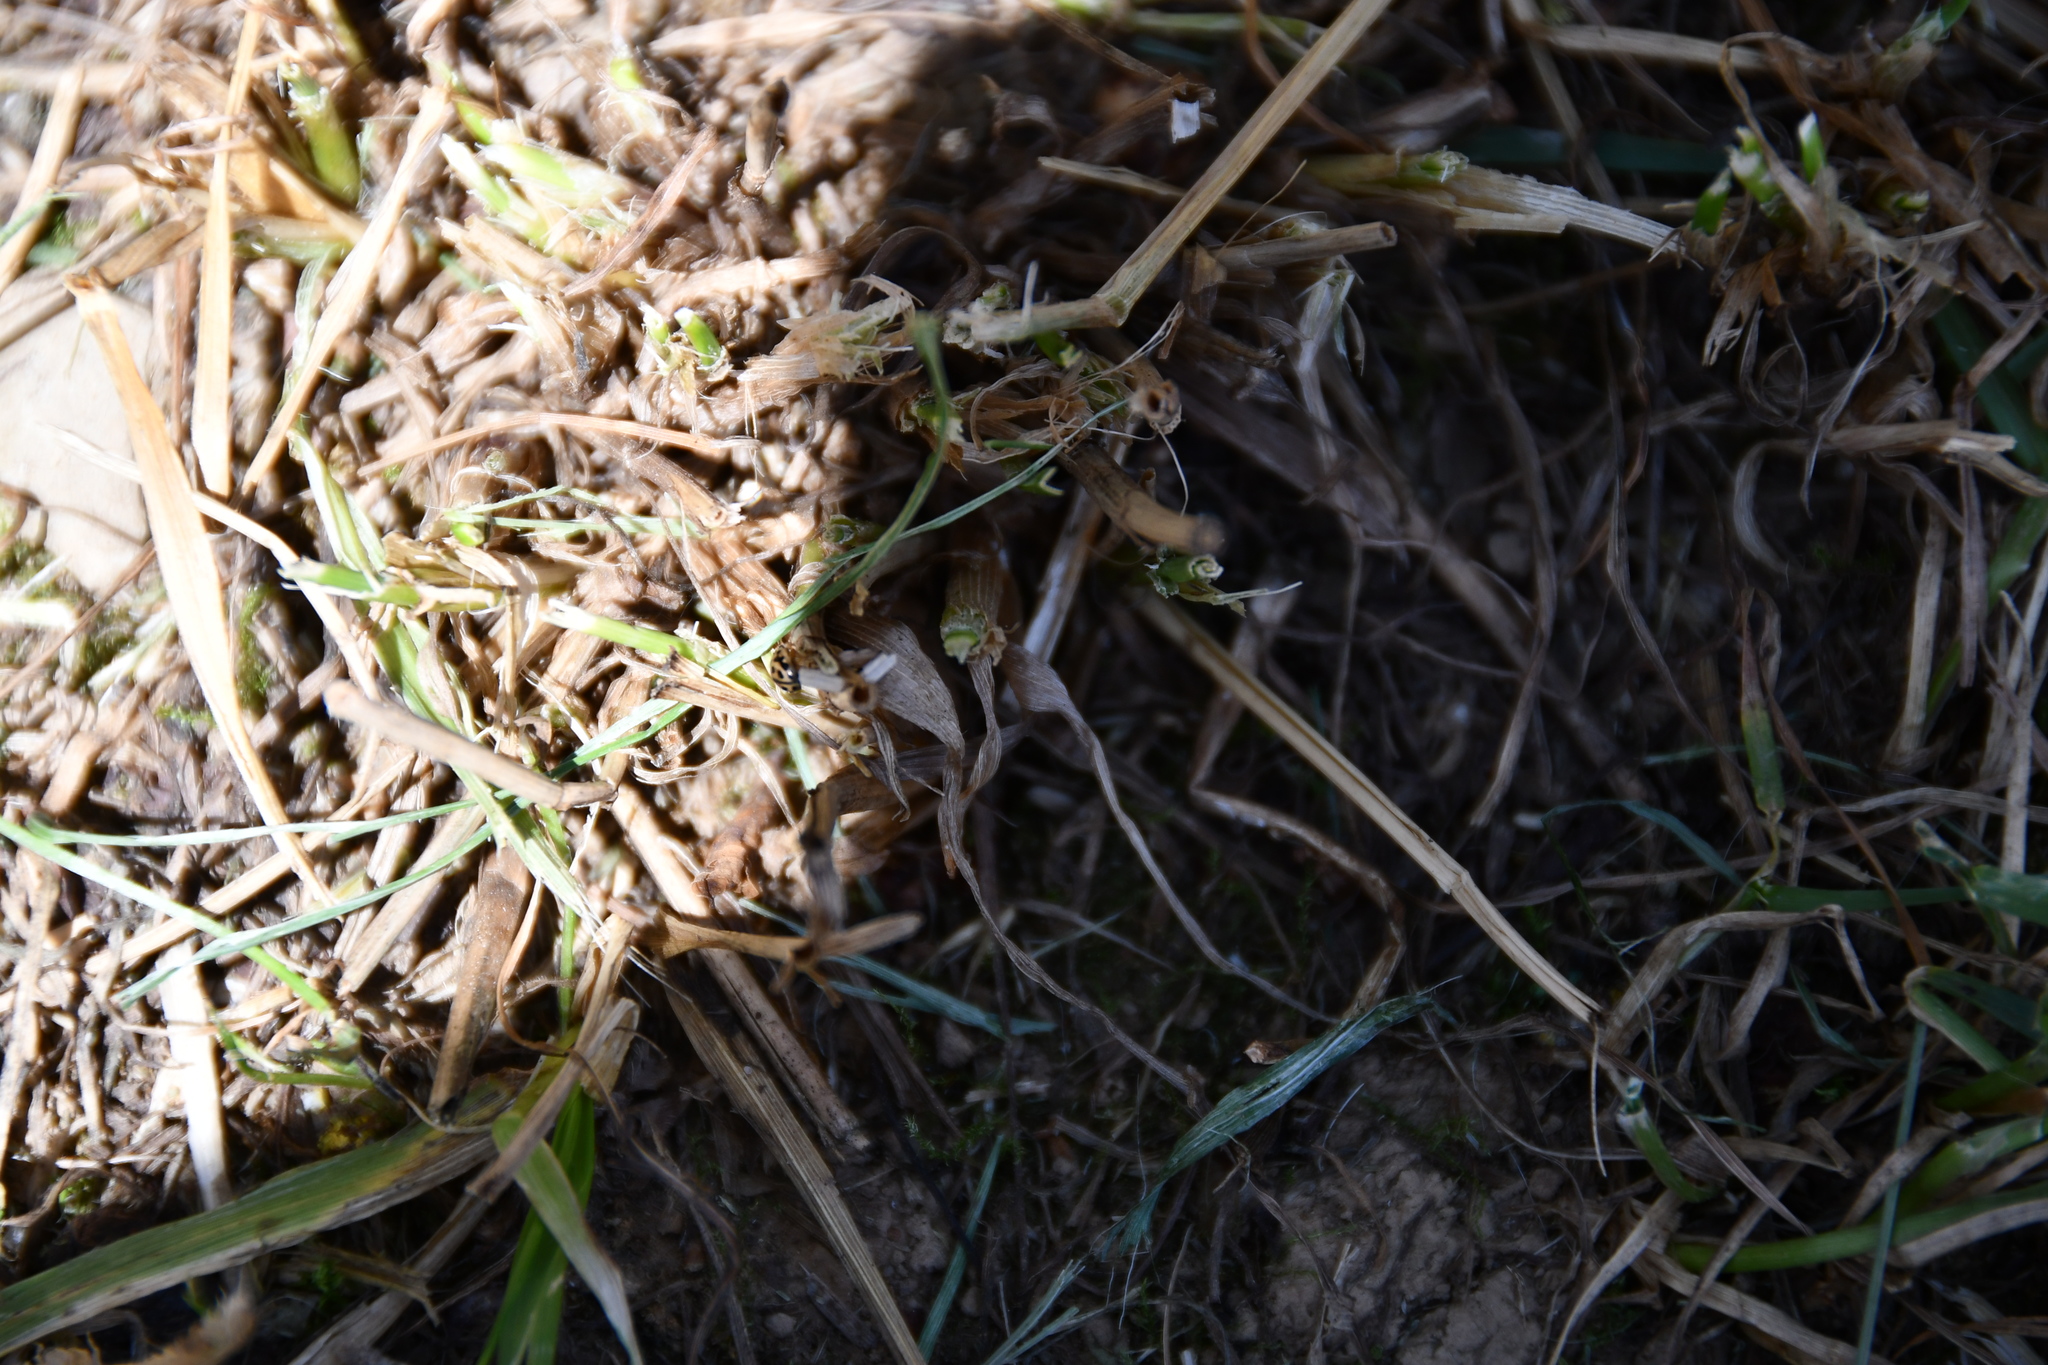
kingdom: Animalia
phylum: Arthropoda
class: Insecta
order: Coleoptera
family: Coccinellidae
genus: Tytthaspis
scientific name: Tytthaspis sedecimpunctata
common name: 16-spot ladybird
